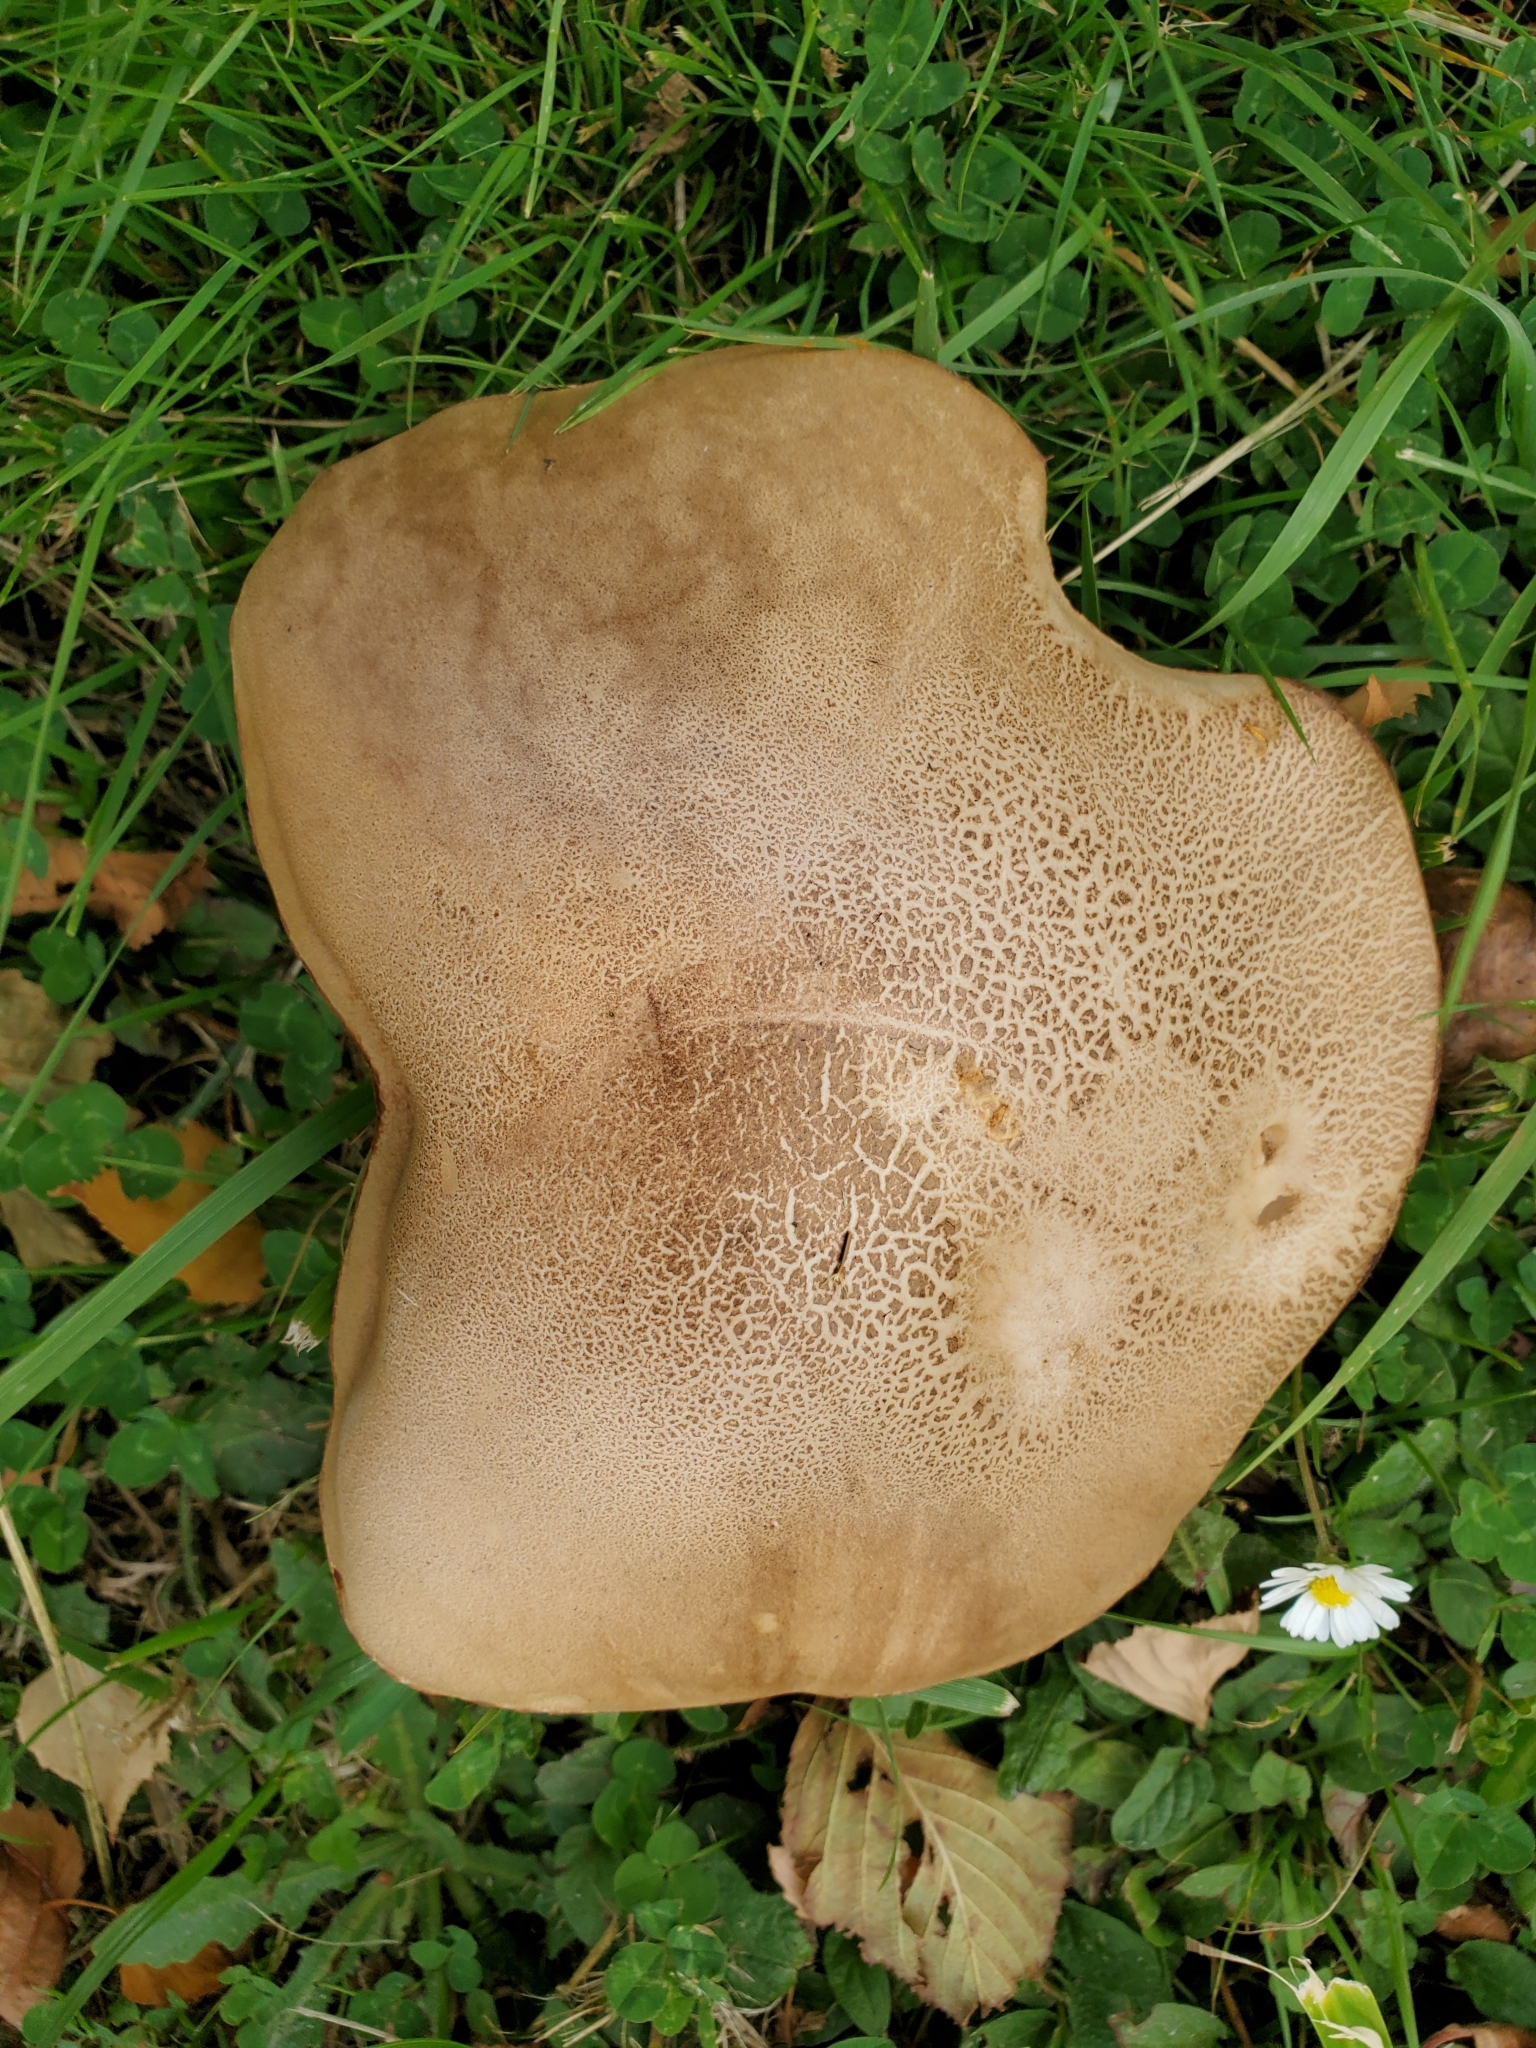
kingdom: Fungi
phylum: Basidiomycota
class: Agaricomycetes
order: Boletales
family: Boletaceae
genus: Leccinum
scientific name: Leccinum scabrum
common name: Blushing bolete
